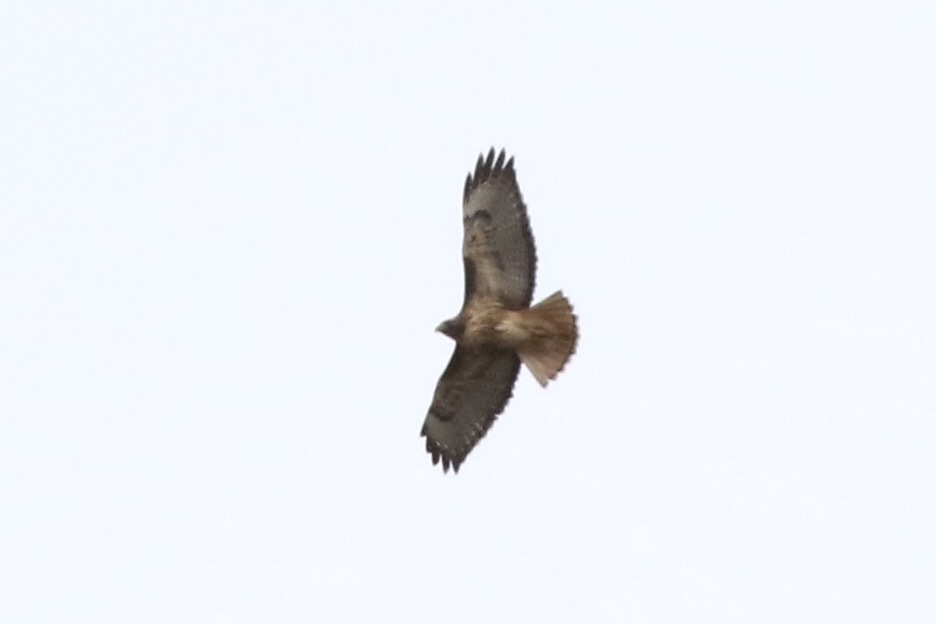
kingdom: Animalia
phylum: Chordata
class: Aves
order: Accipitriformes
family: Accipitridae
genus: Buteo
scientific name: Buteo jamaicensis
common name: Red-tailed hawk
